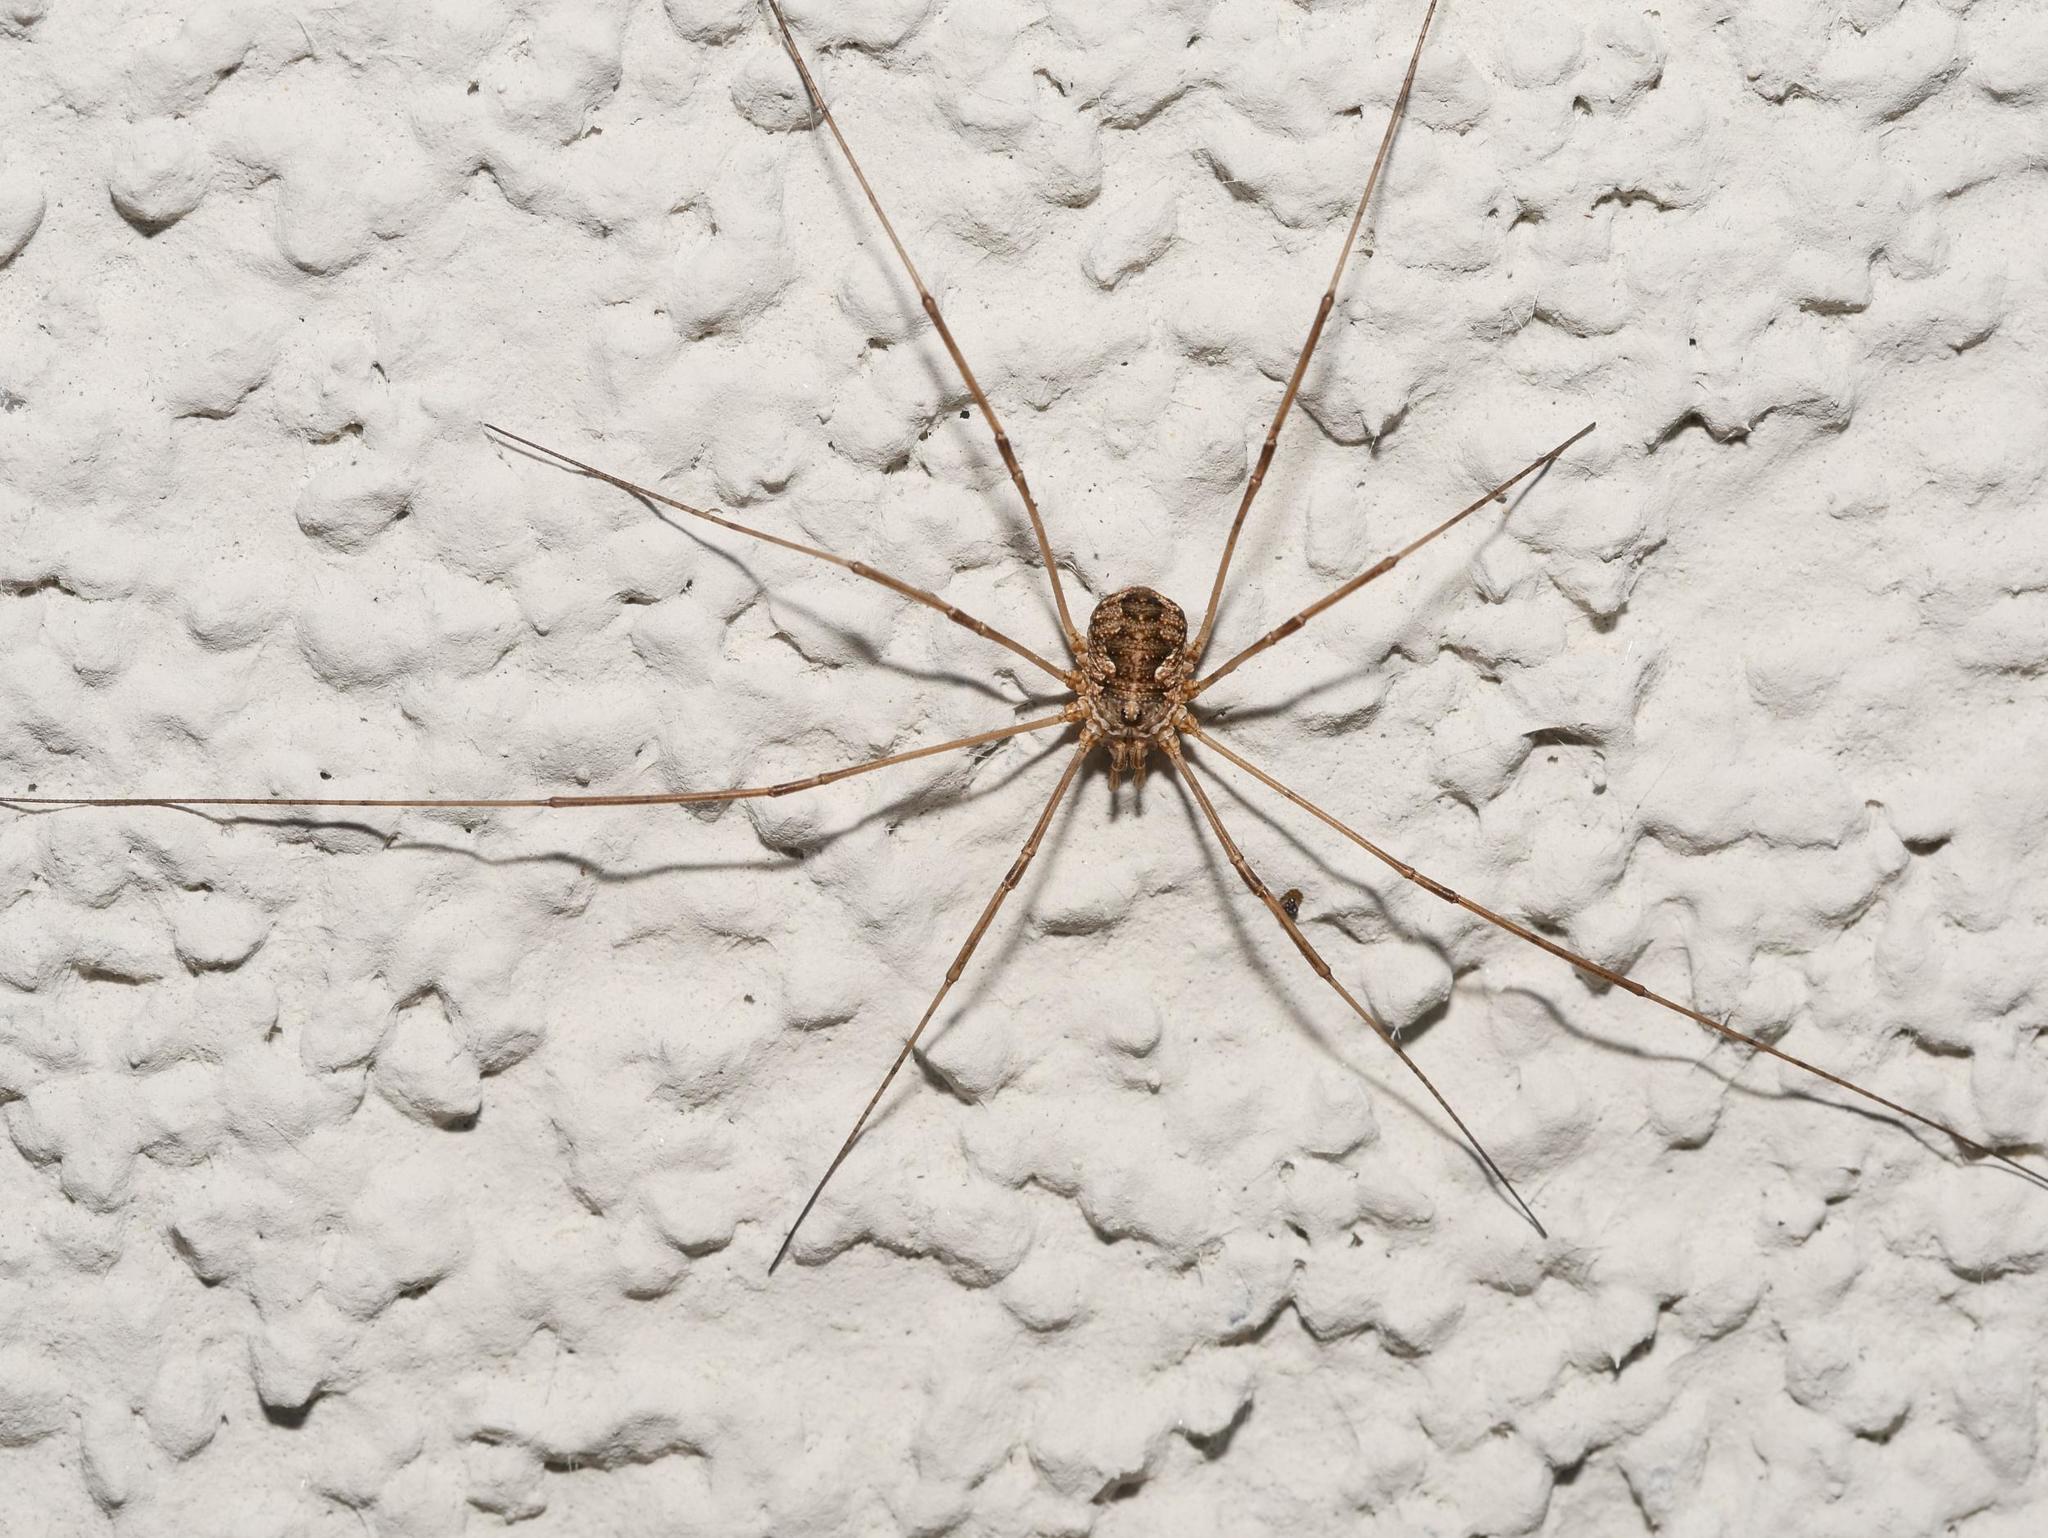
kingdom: Animalia
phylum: Arthropoda
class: Arachnida
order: Opiliones
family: Phalangiidae
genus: Phalangium
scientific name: Phalangium opilio
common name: Daddy longleg
